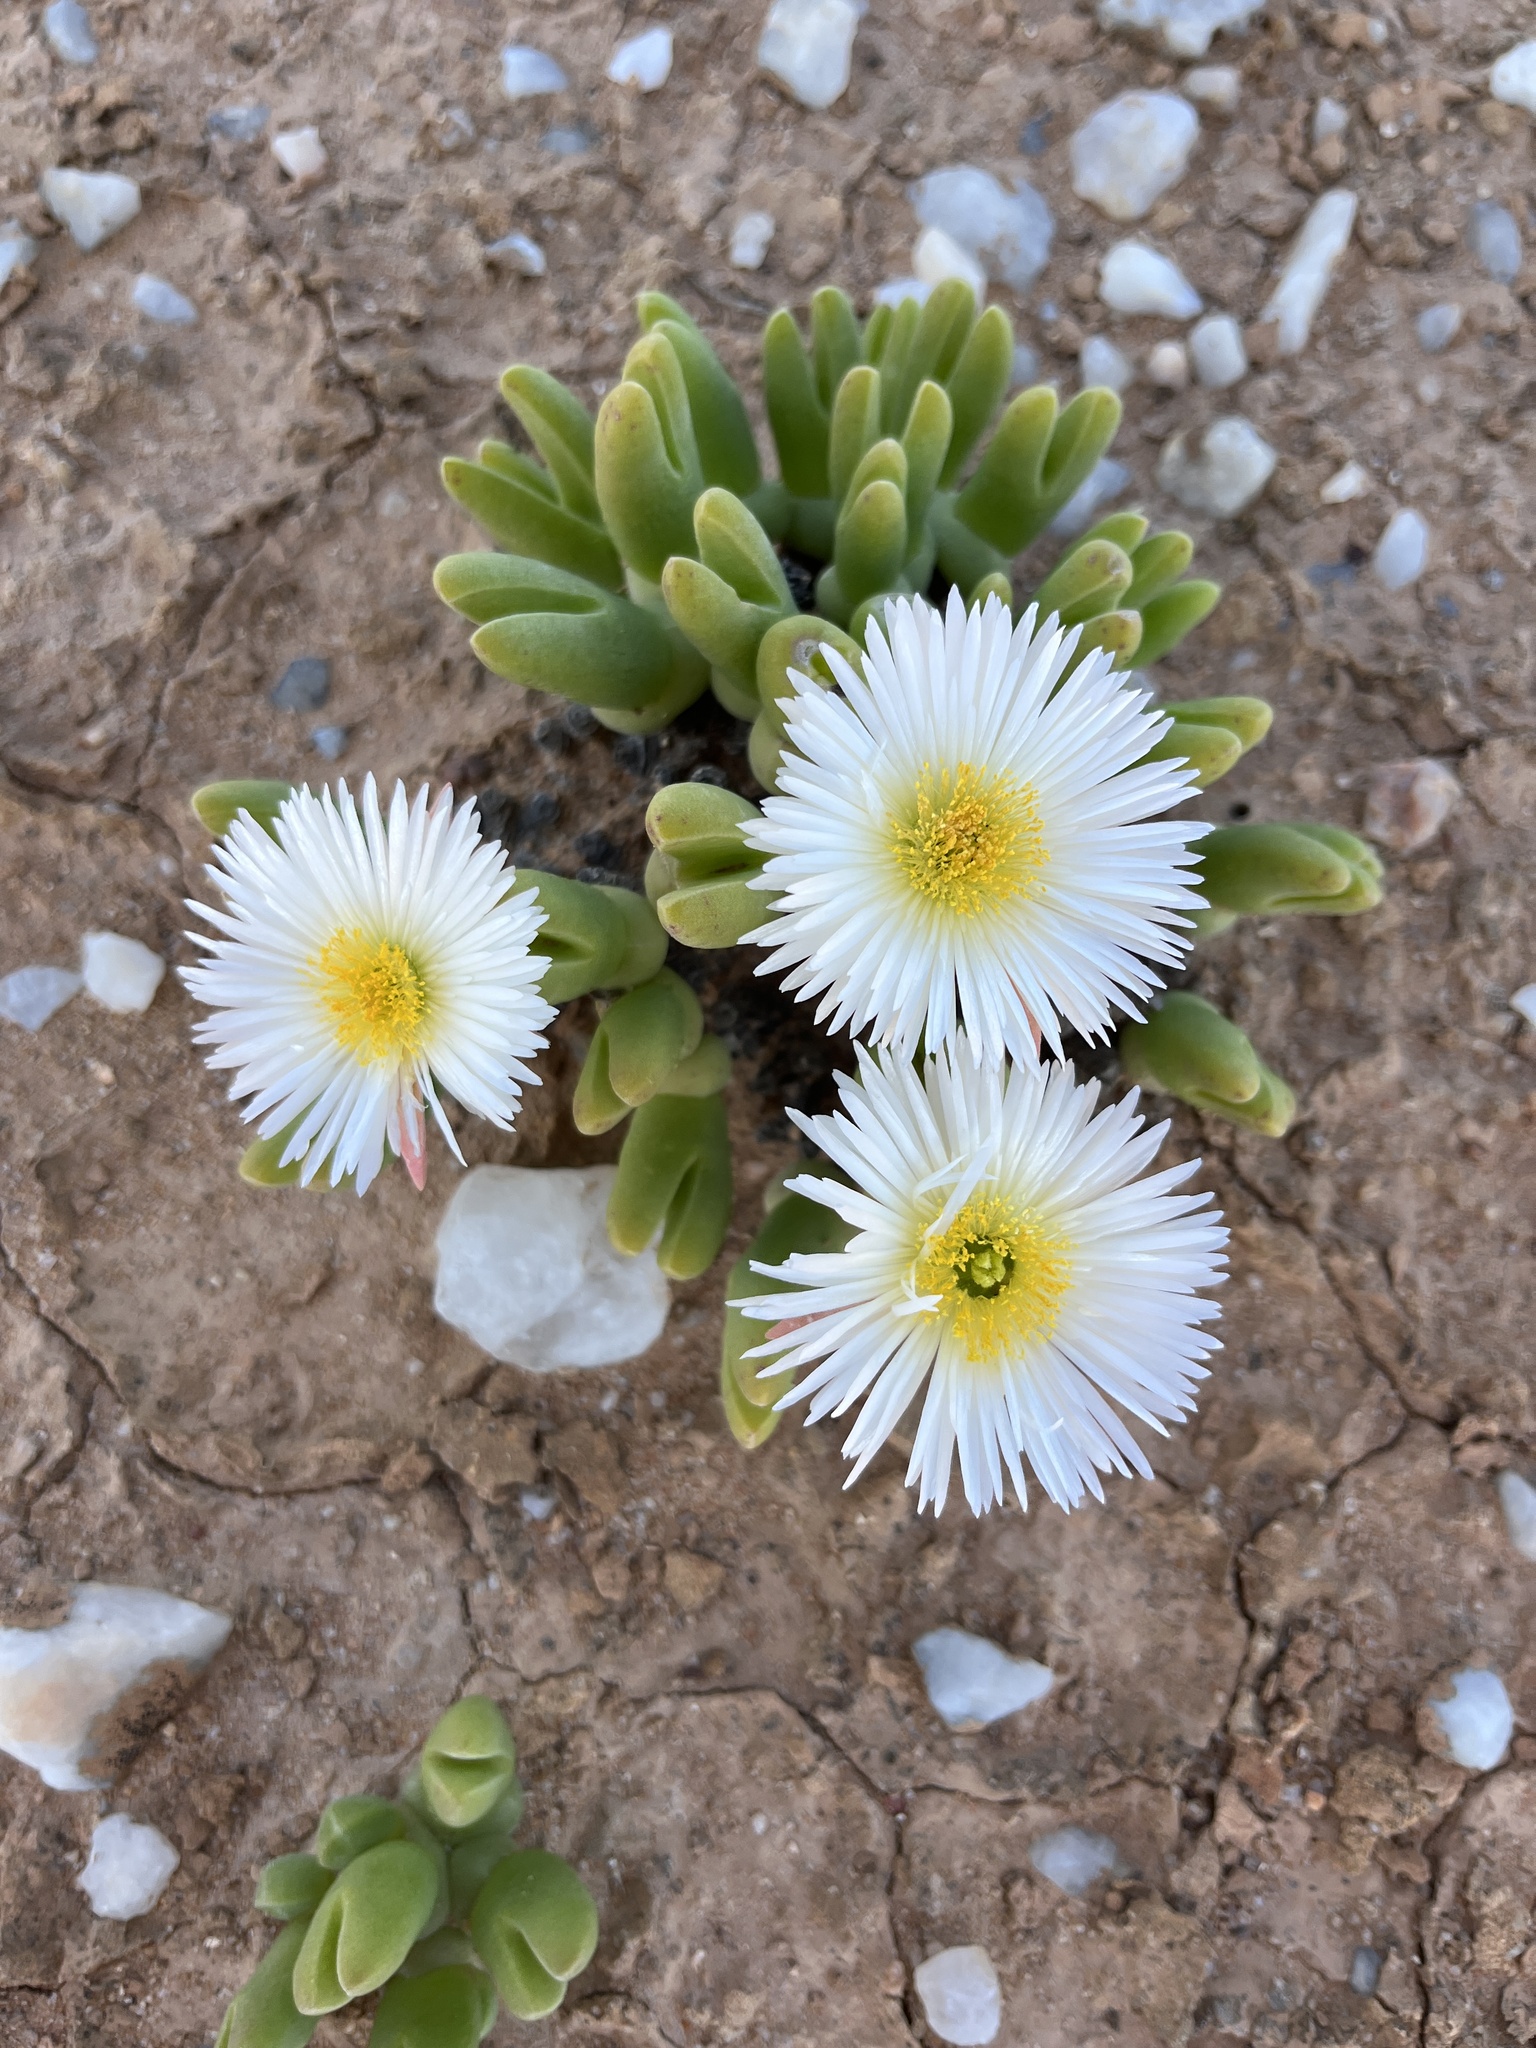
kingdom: Plantae
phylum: Tracheophyta
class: Magnoliopsida
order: Caryophyllales
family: Aizoaceae
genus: Meyerophytum
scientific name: Meyerophytum globosum
